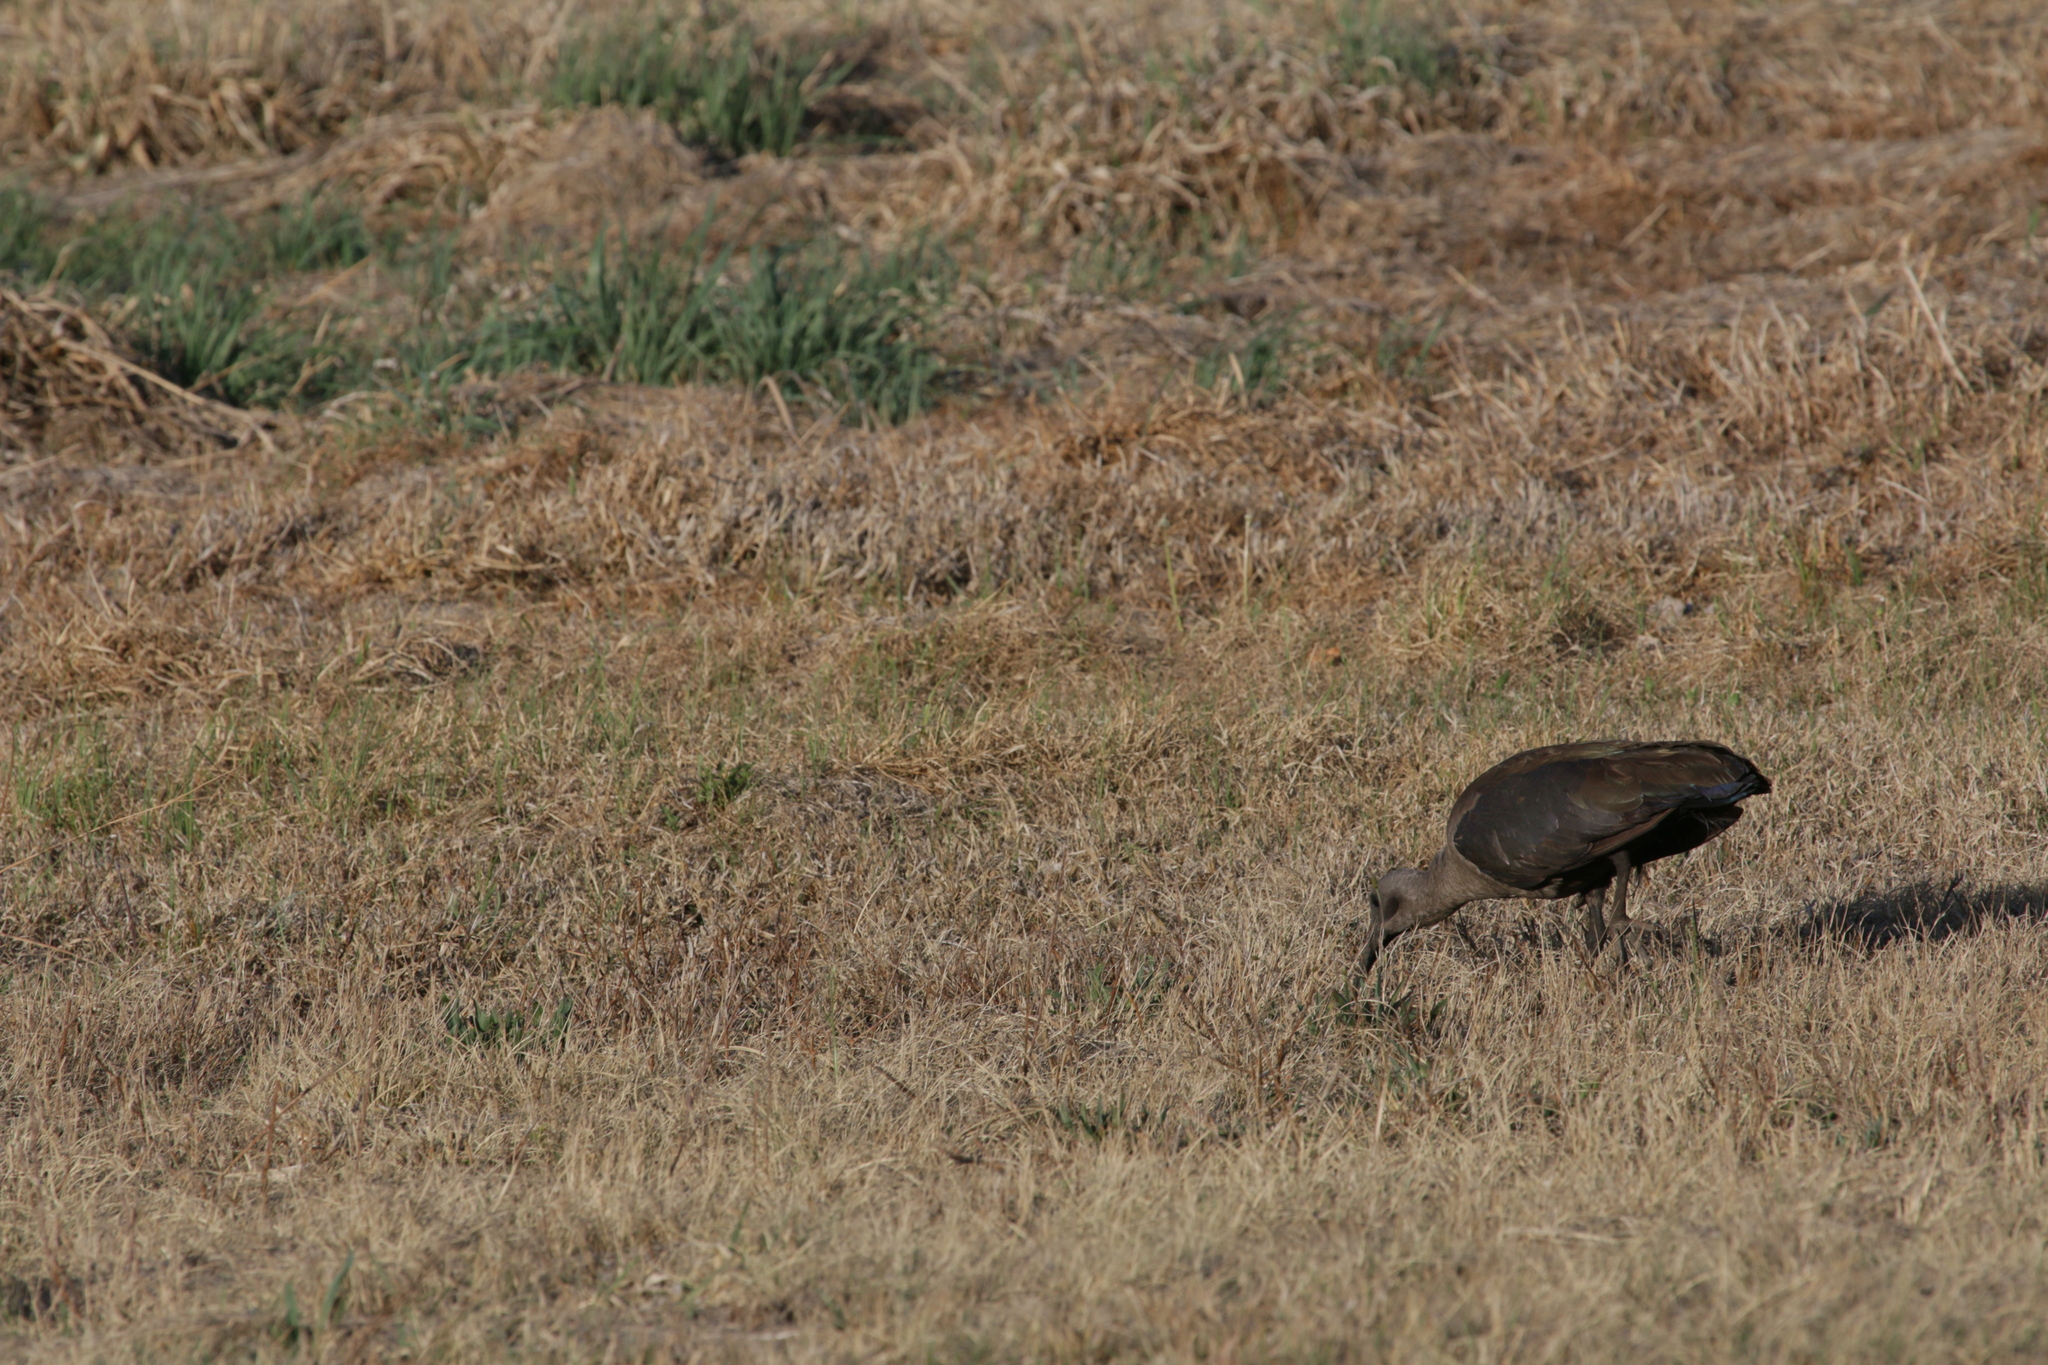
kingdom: Animalia
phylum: Chordata
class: Aves
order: Pelecaniformes
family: Threskiornithidae
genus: Bostrychia
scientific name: Bostrychia hagedash
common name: Hadada ibis
